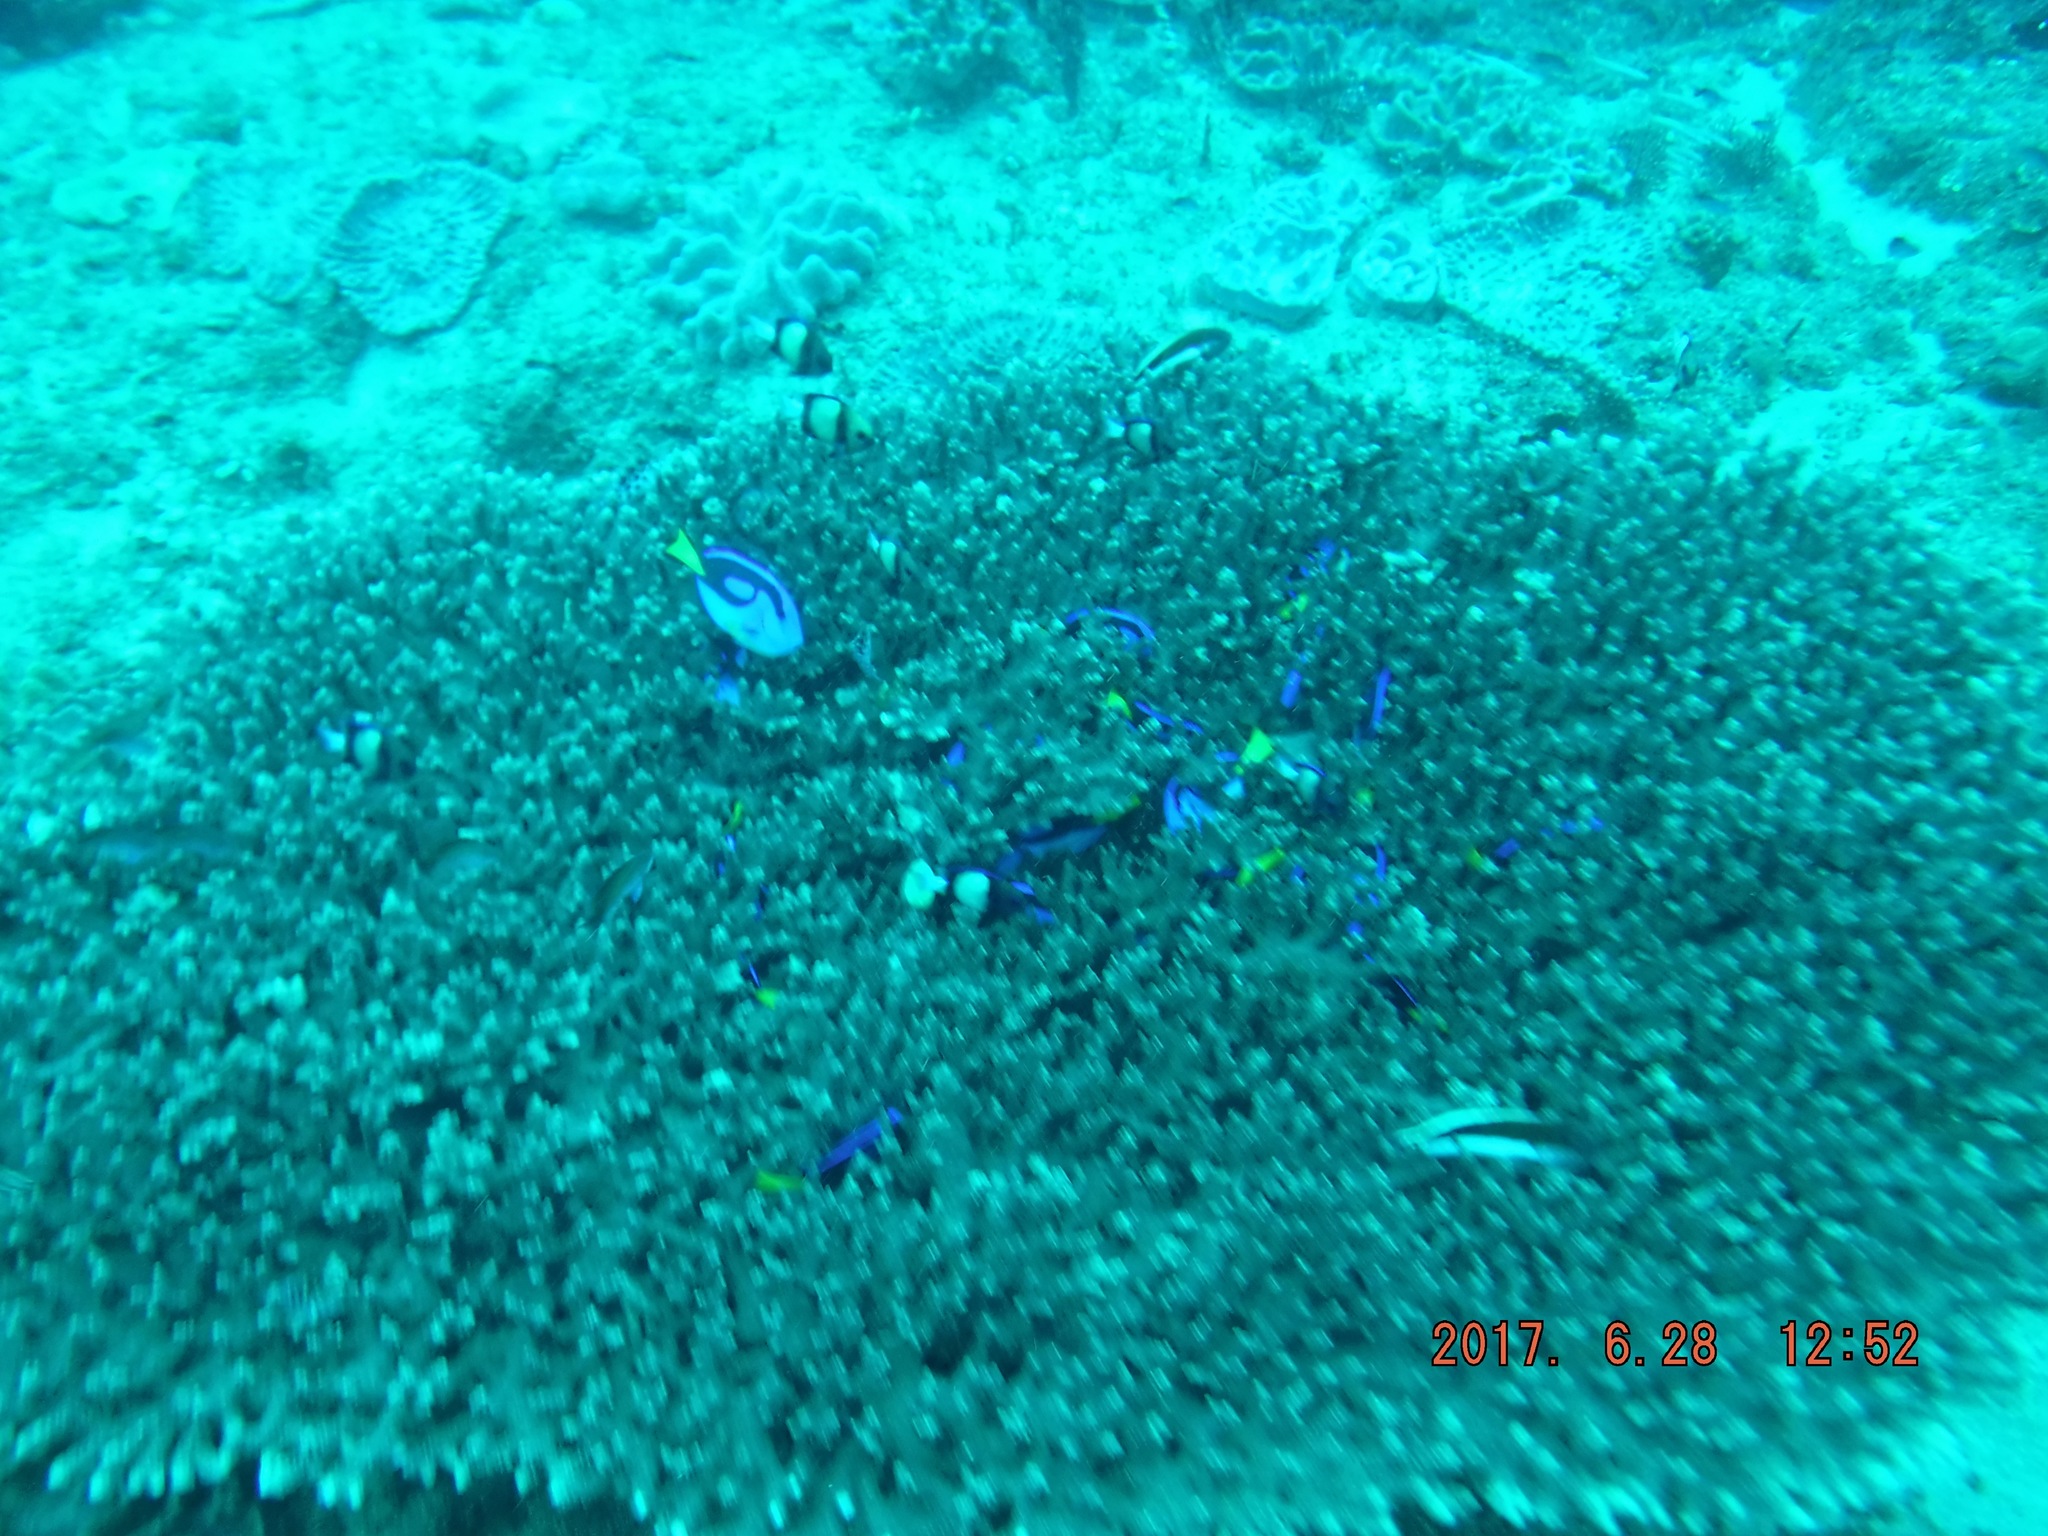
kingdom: Animalia
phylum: Chordata
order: Perciformes
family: Pomacentridae
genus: Dascyllus
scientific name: Dascyllus carneus
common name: Indian dascyllus
